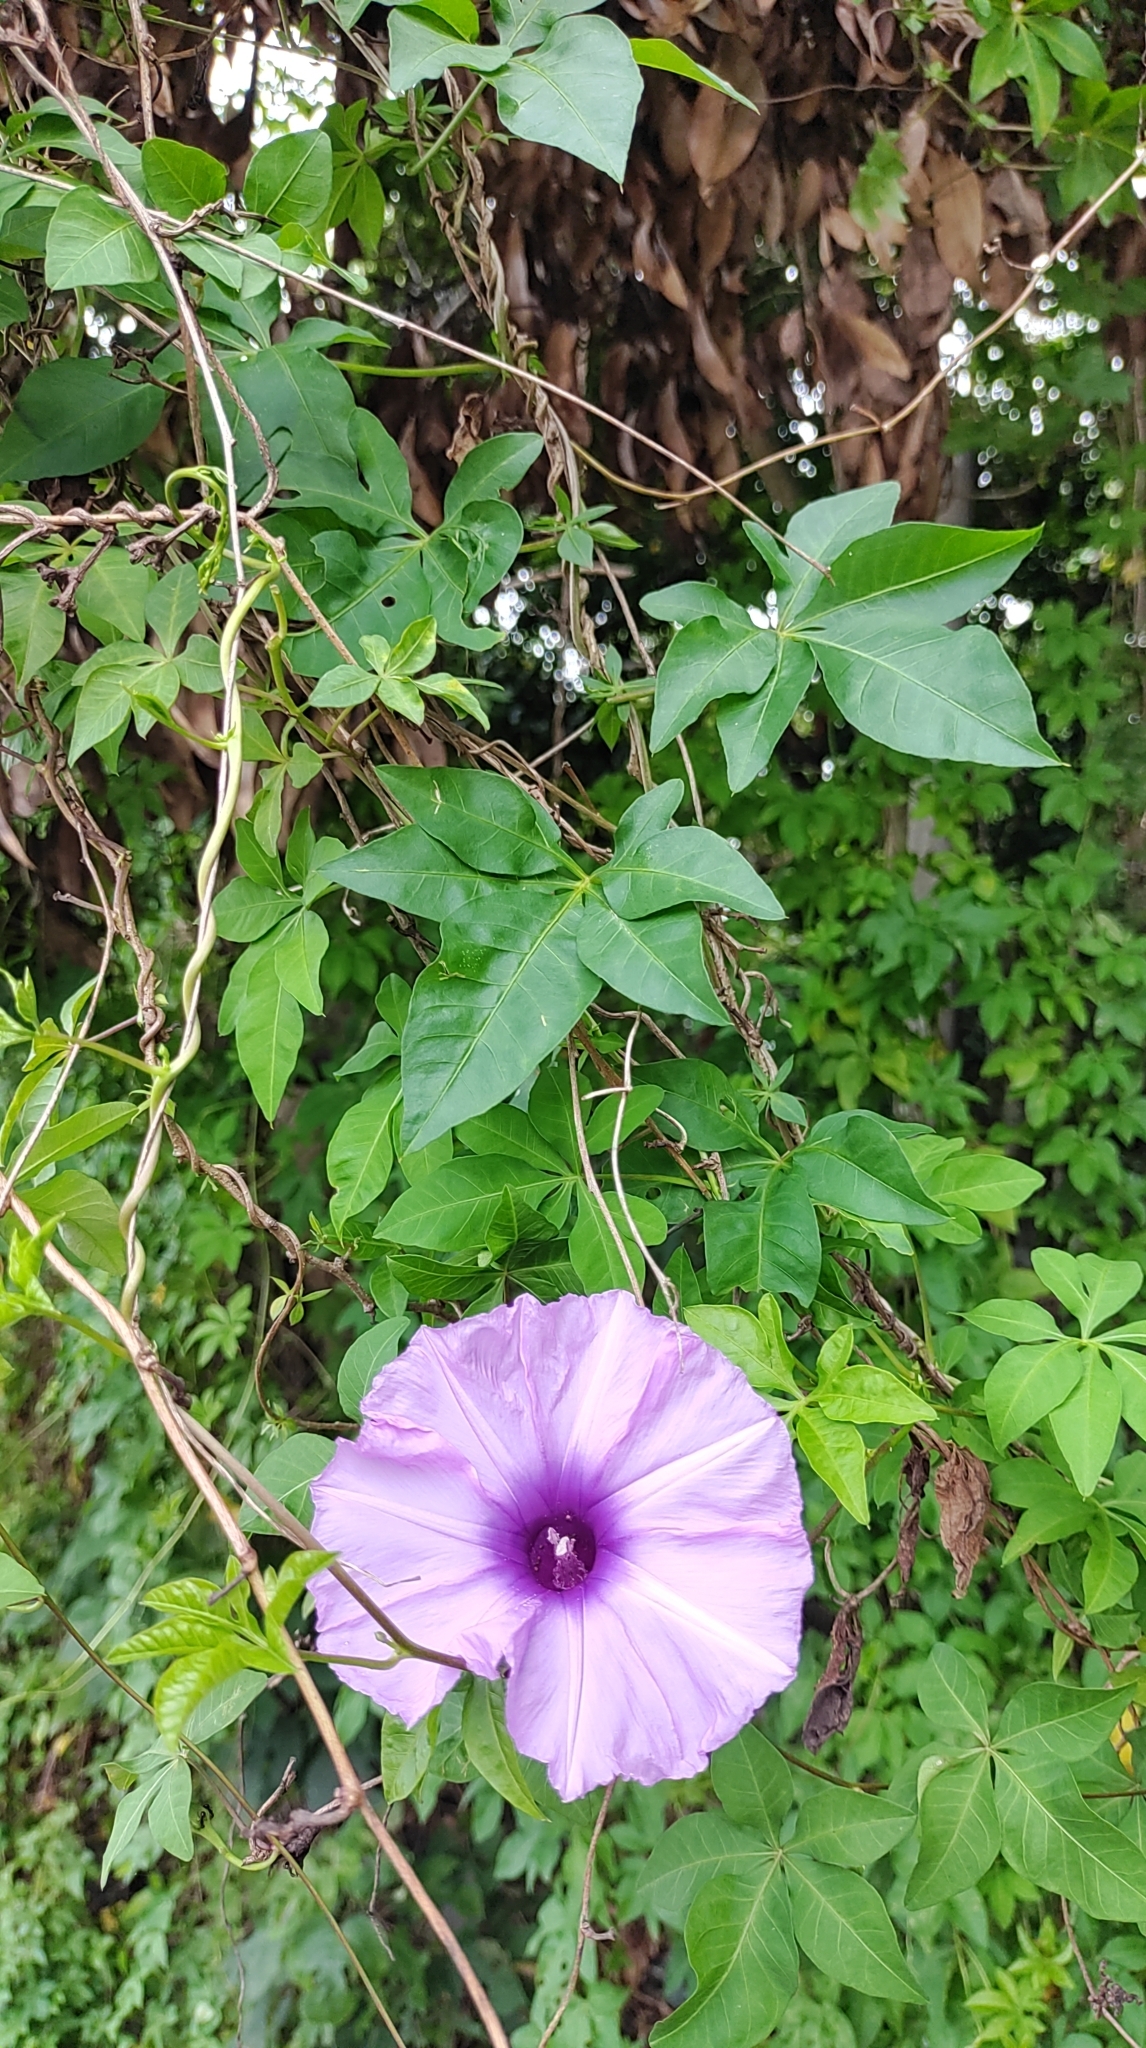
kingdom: Plantae
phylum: Tracheophyta
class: Magnoliopsida
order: Solanales
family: Convolvulaceae
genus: Ipomoea
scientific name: Ipomoea cairica
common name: Mile a minute vine
